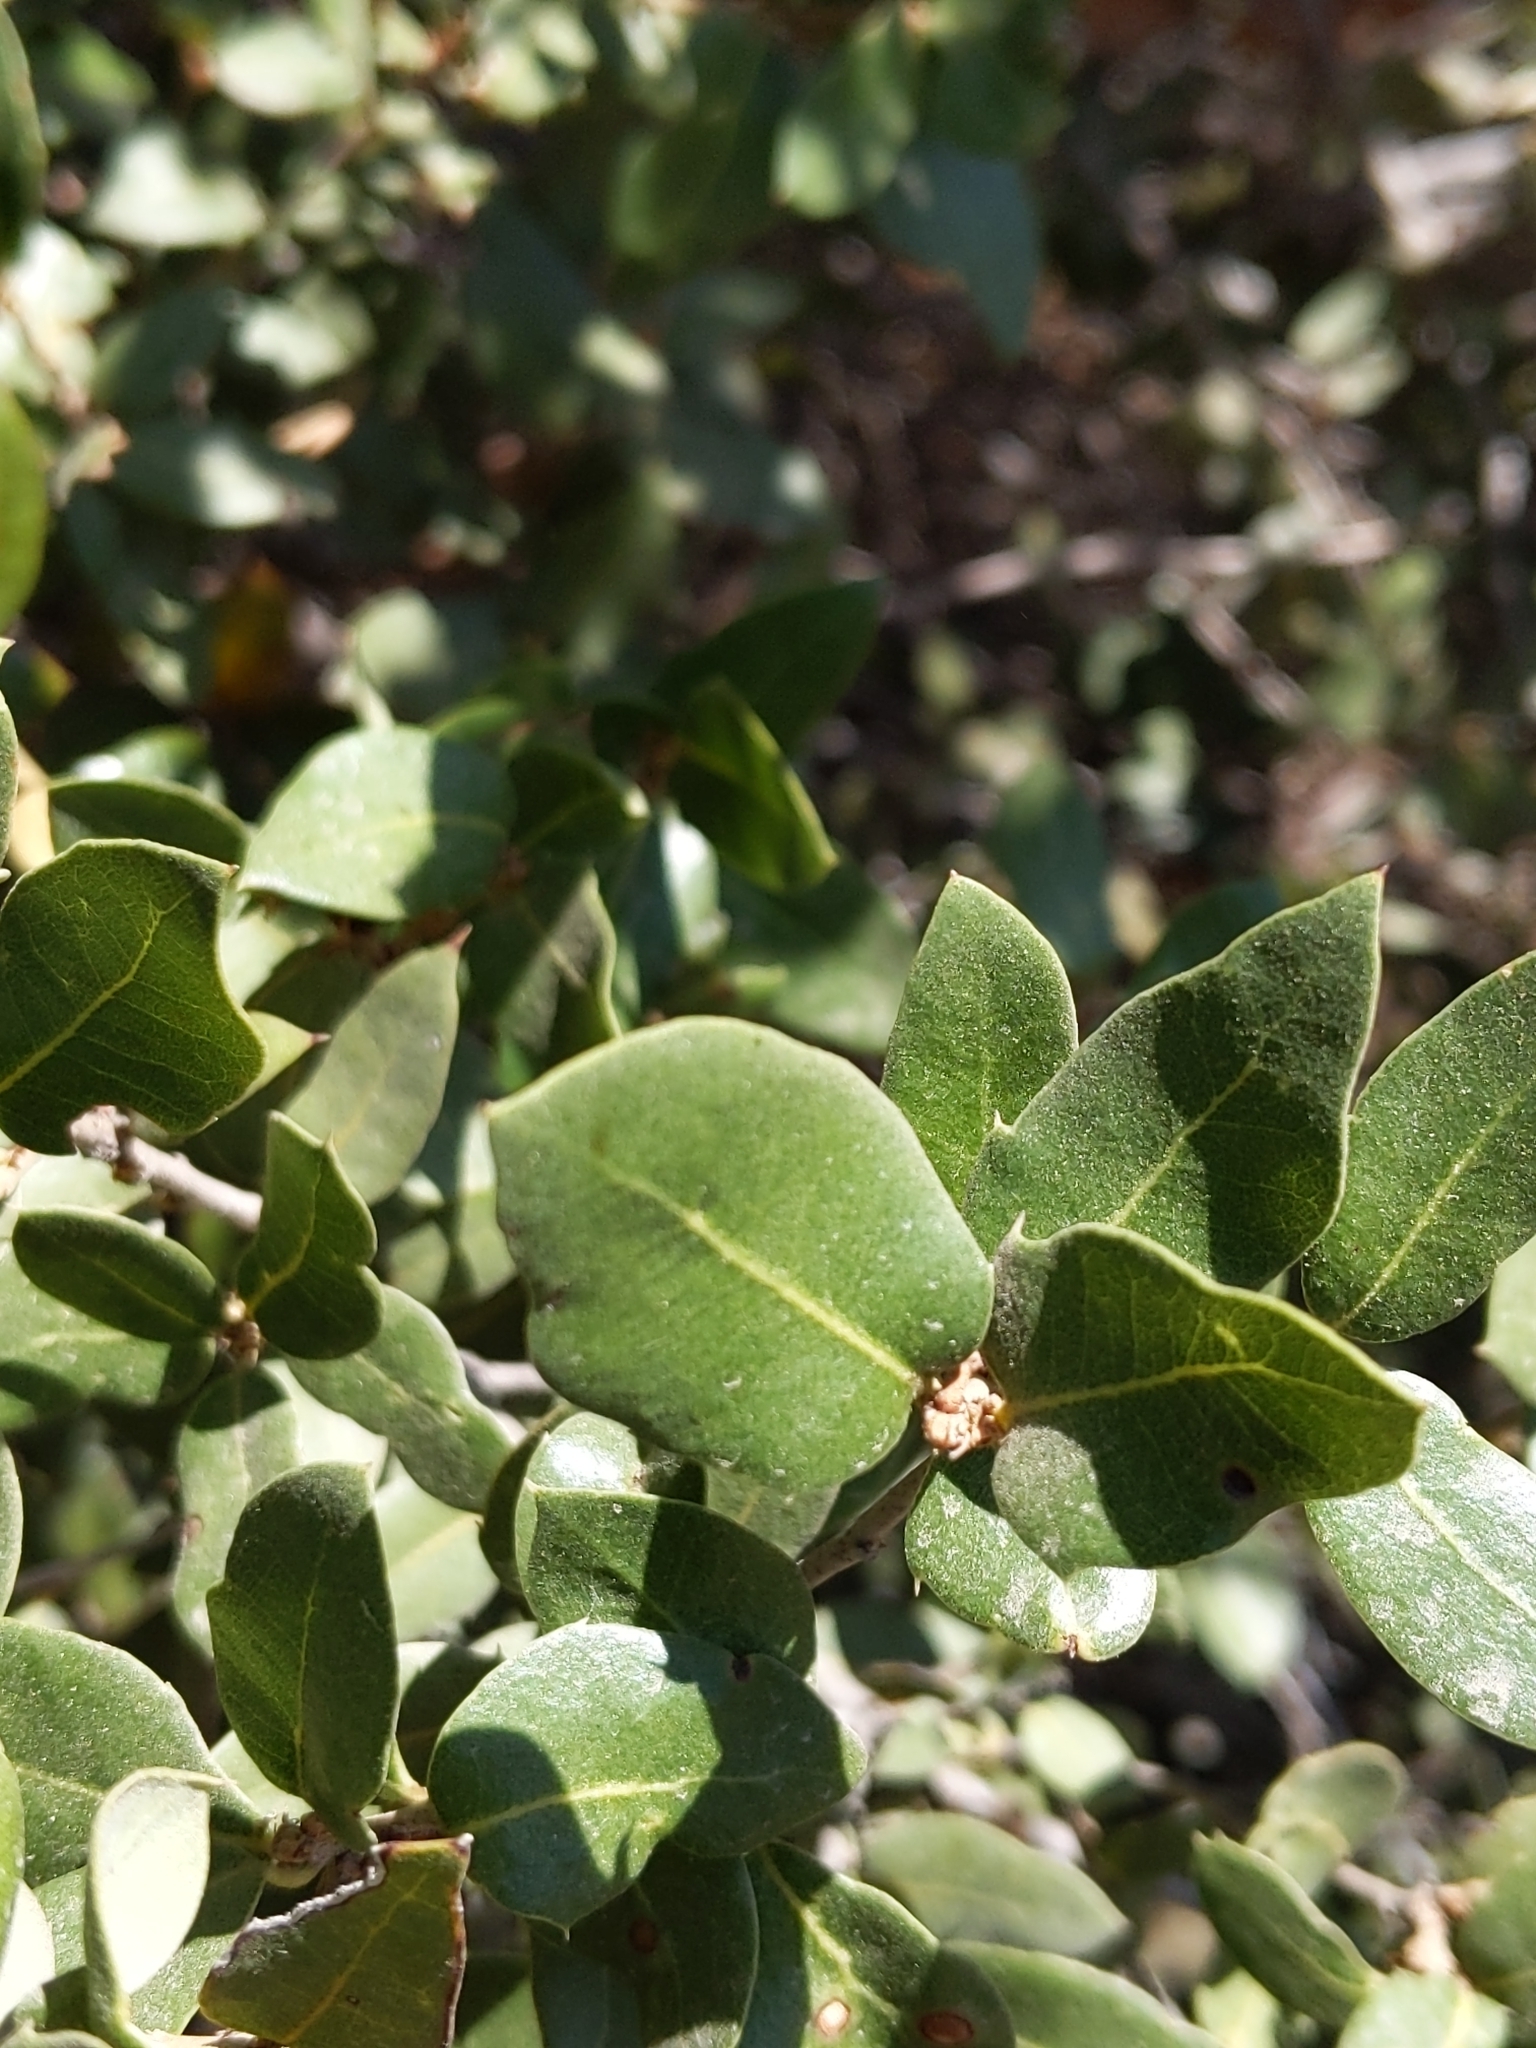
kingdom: Plantae
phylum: Tracheophyta
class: Magnoliopsida
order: Fagales
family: Fagaceae
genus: Quercus
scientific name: Quercus cedrosensis
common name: Cedros island oak
